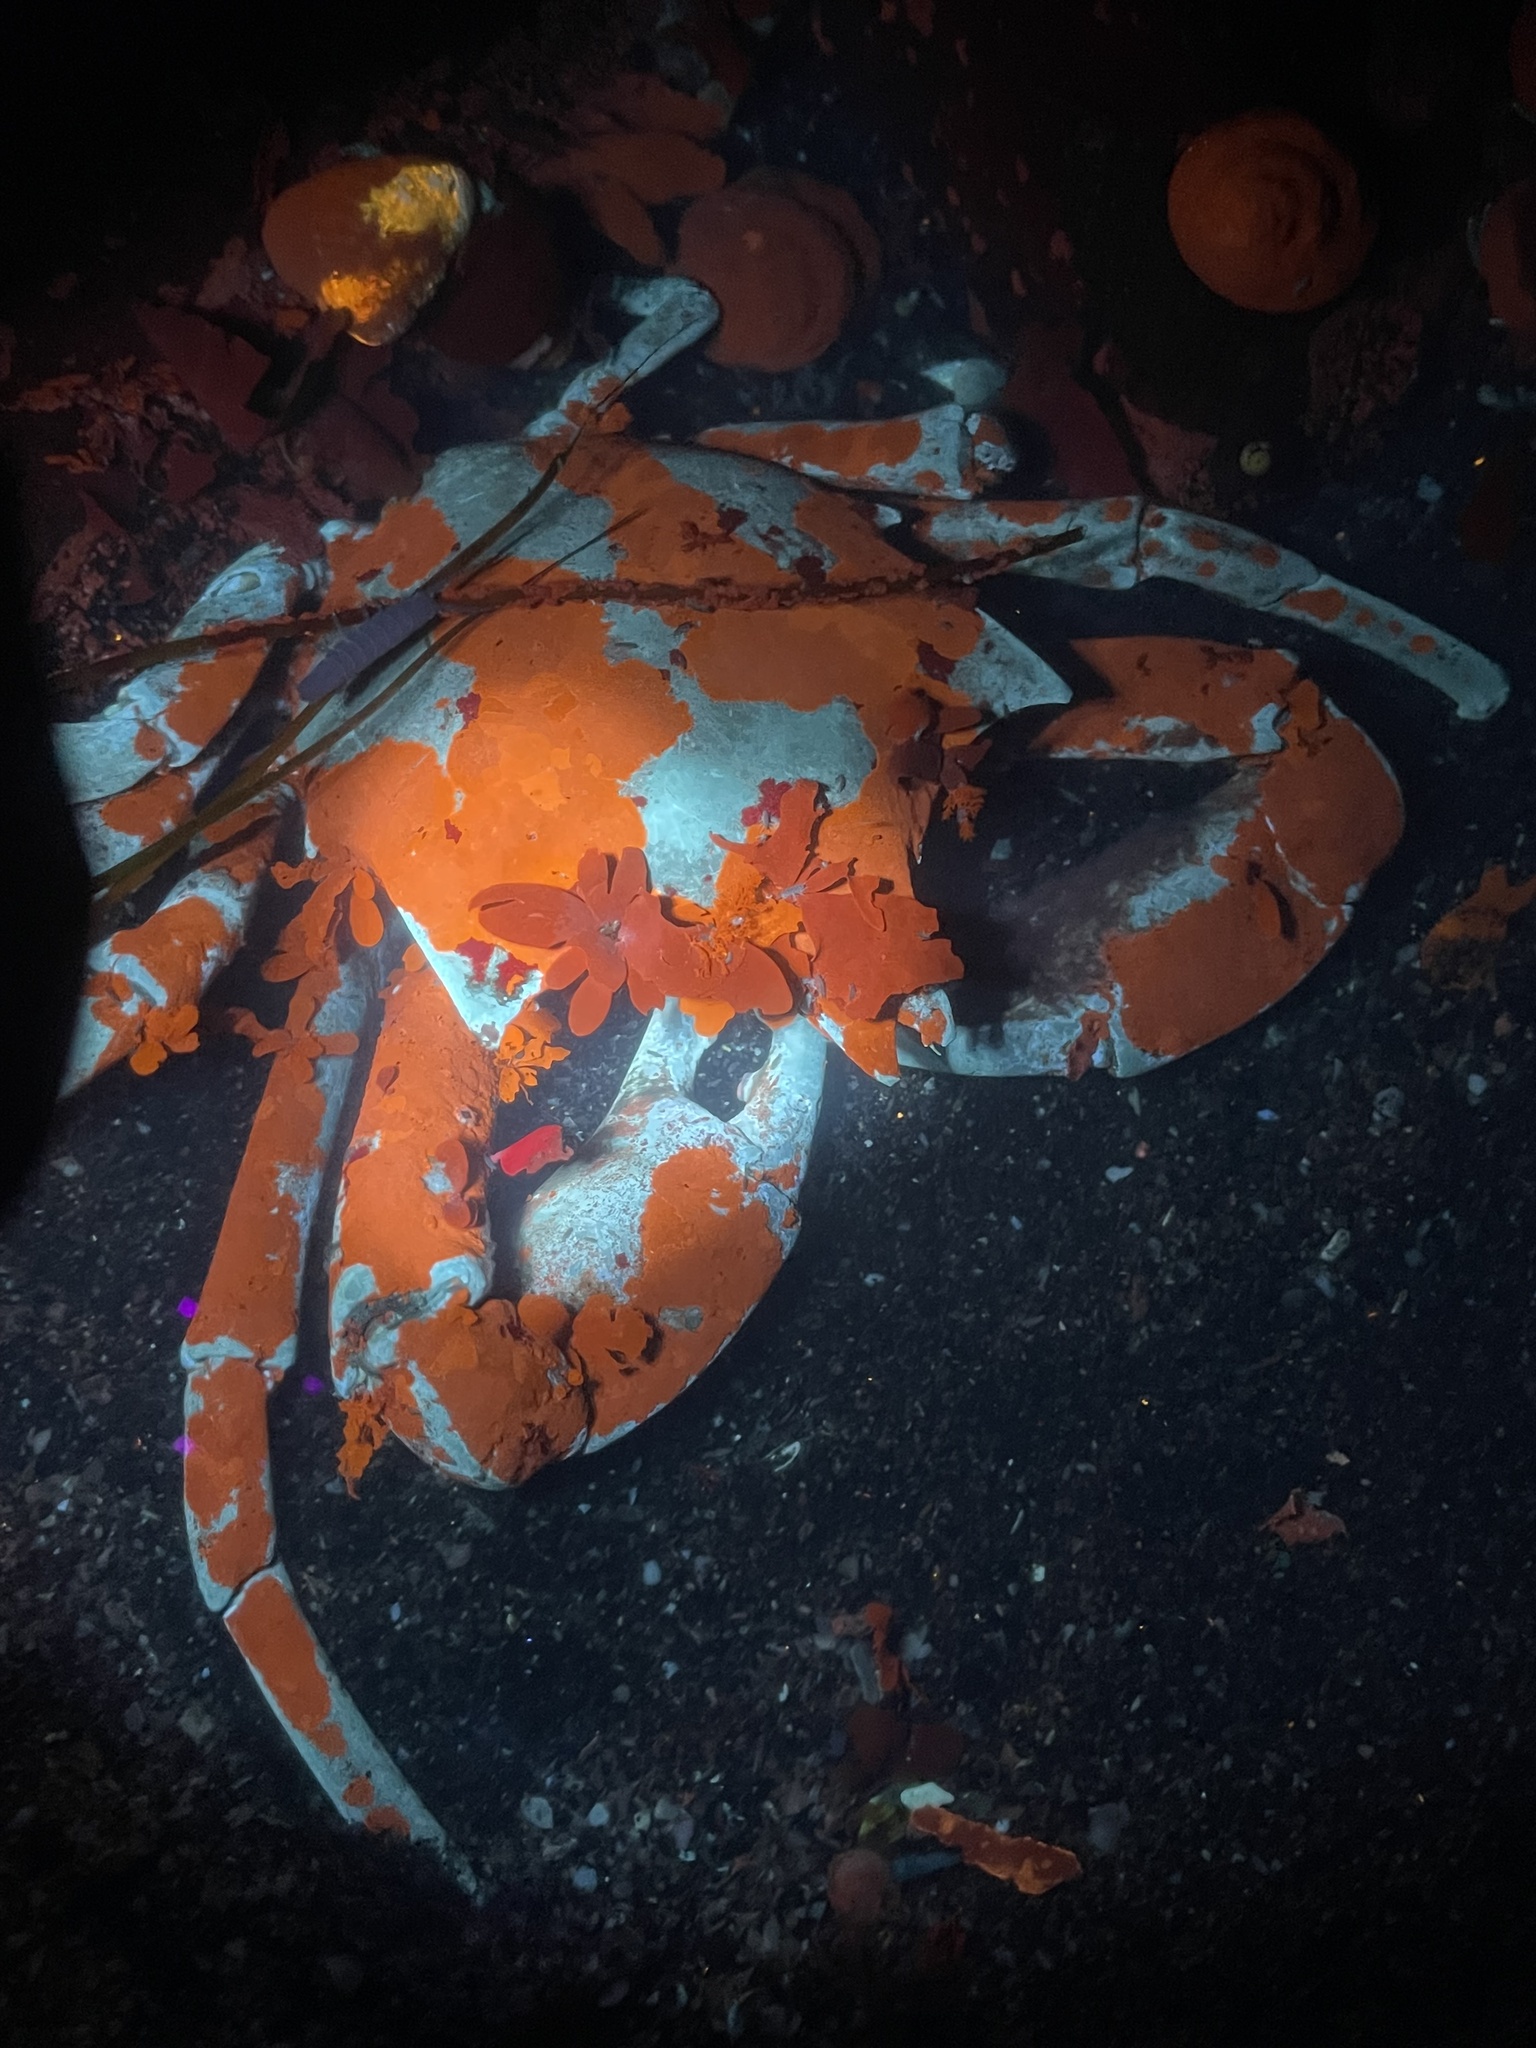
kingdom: Animalia
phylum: Arthropoda
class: Malacostraca
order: Decapoda
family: Epialtidae
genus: Pugettia
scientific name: Pugettia producta
